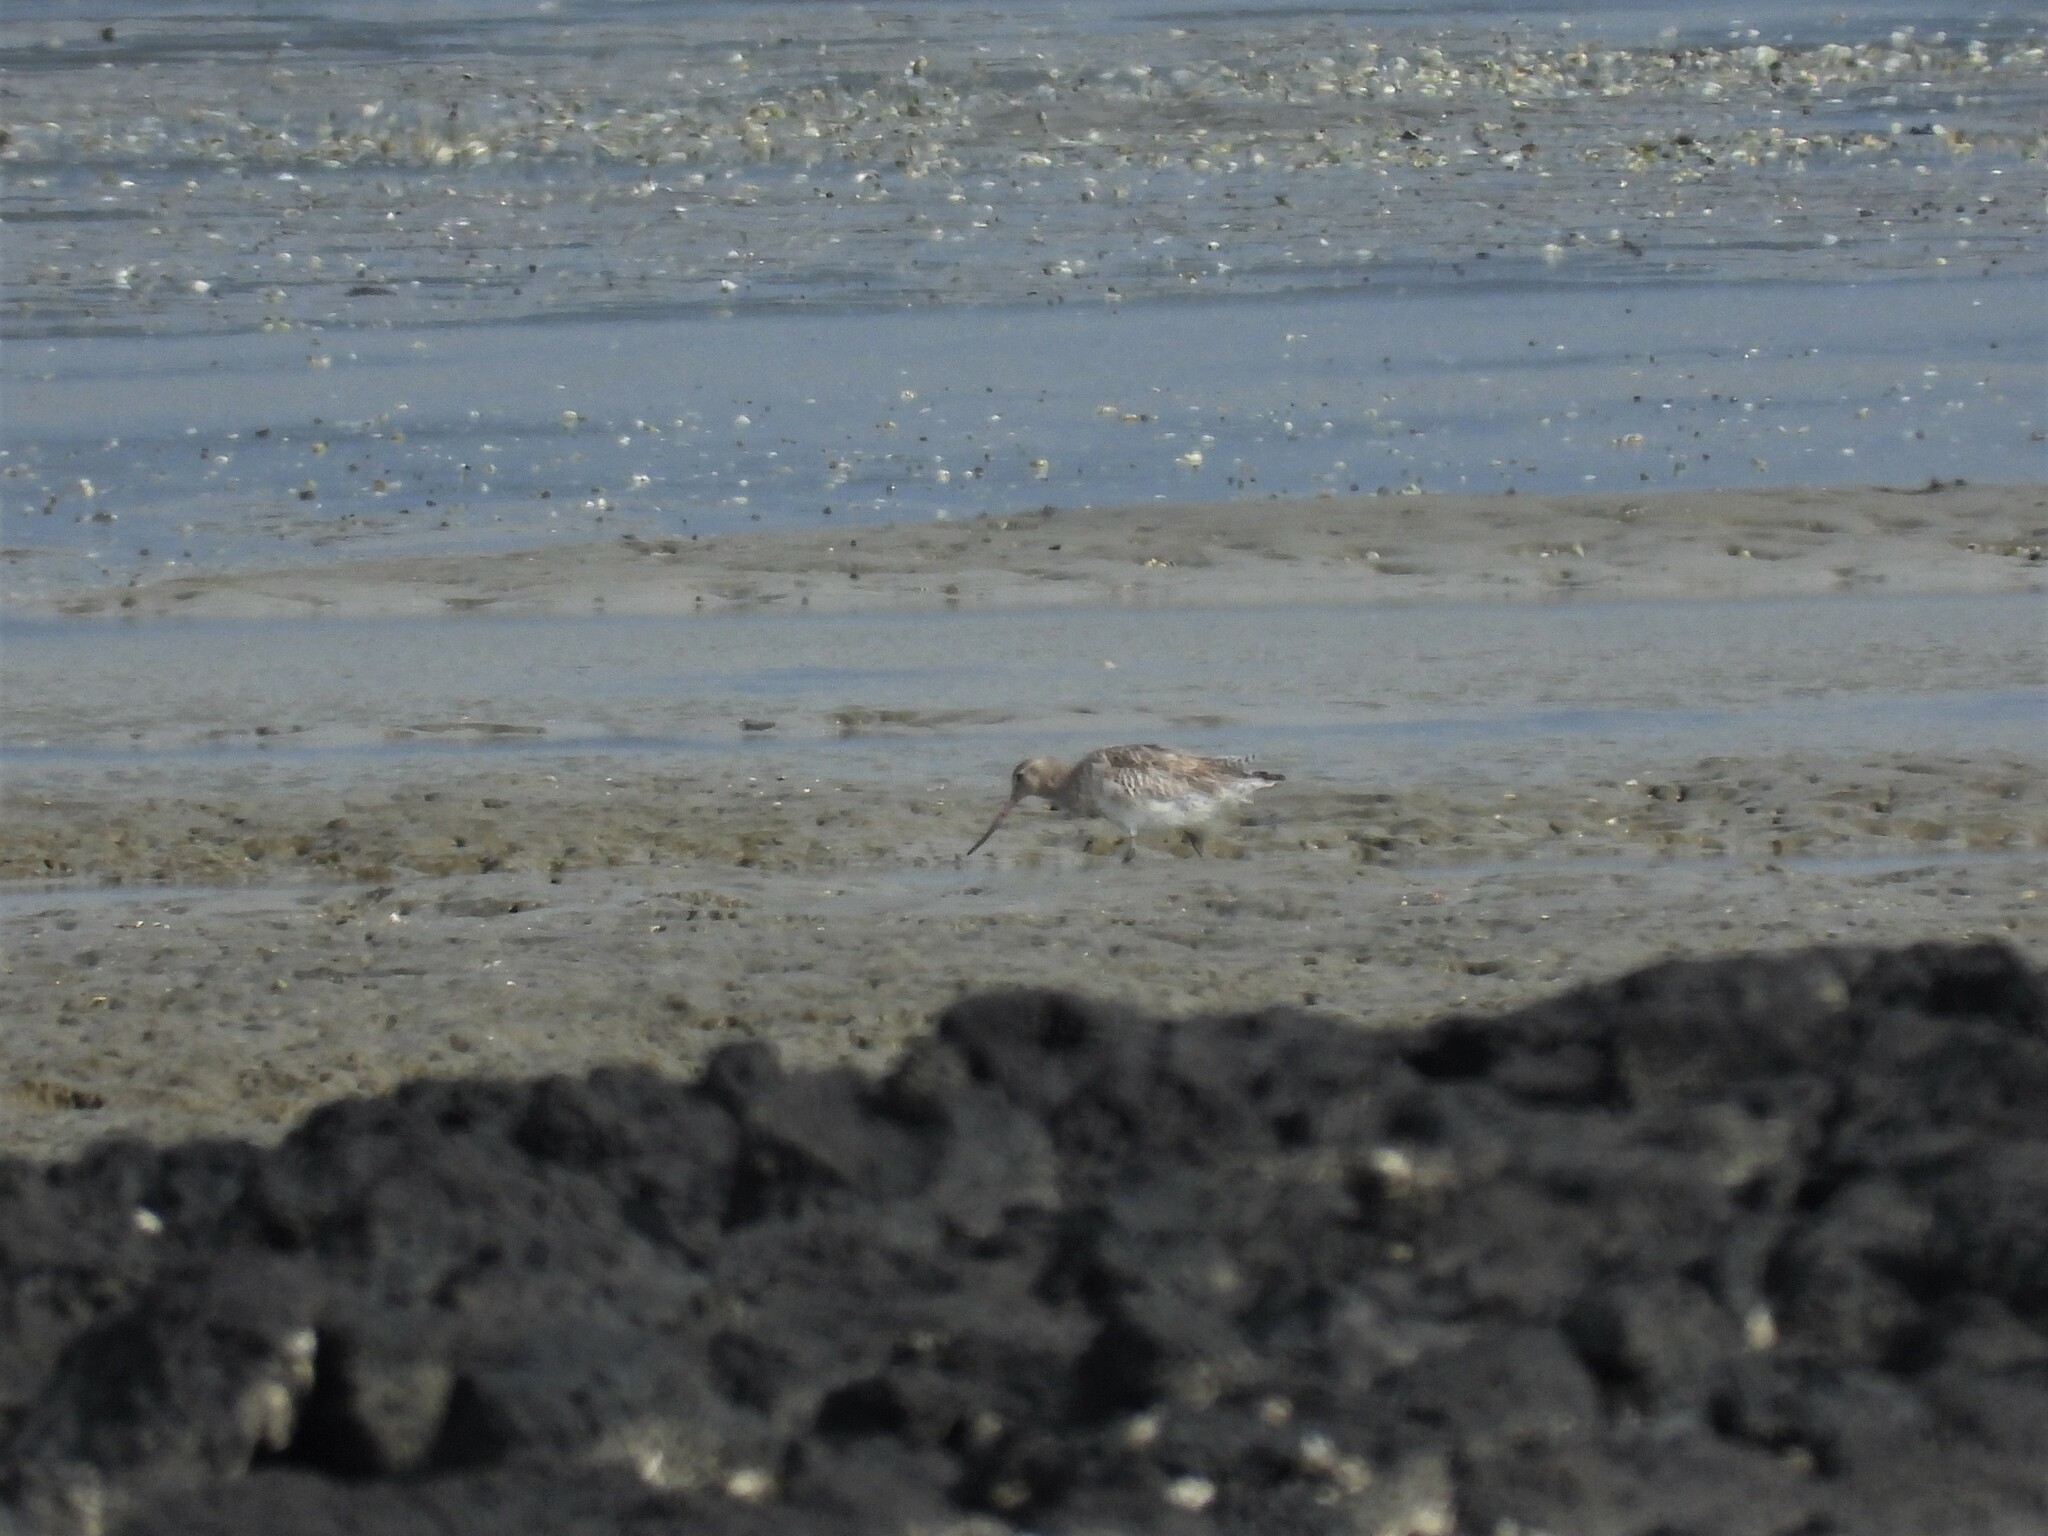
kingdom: Animalia
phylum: Chordata
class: Aves
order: Charadriiformes
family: Scolopacidae
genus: Limosa
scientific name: Limosa lapponica
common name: Bar-tailed godwit
